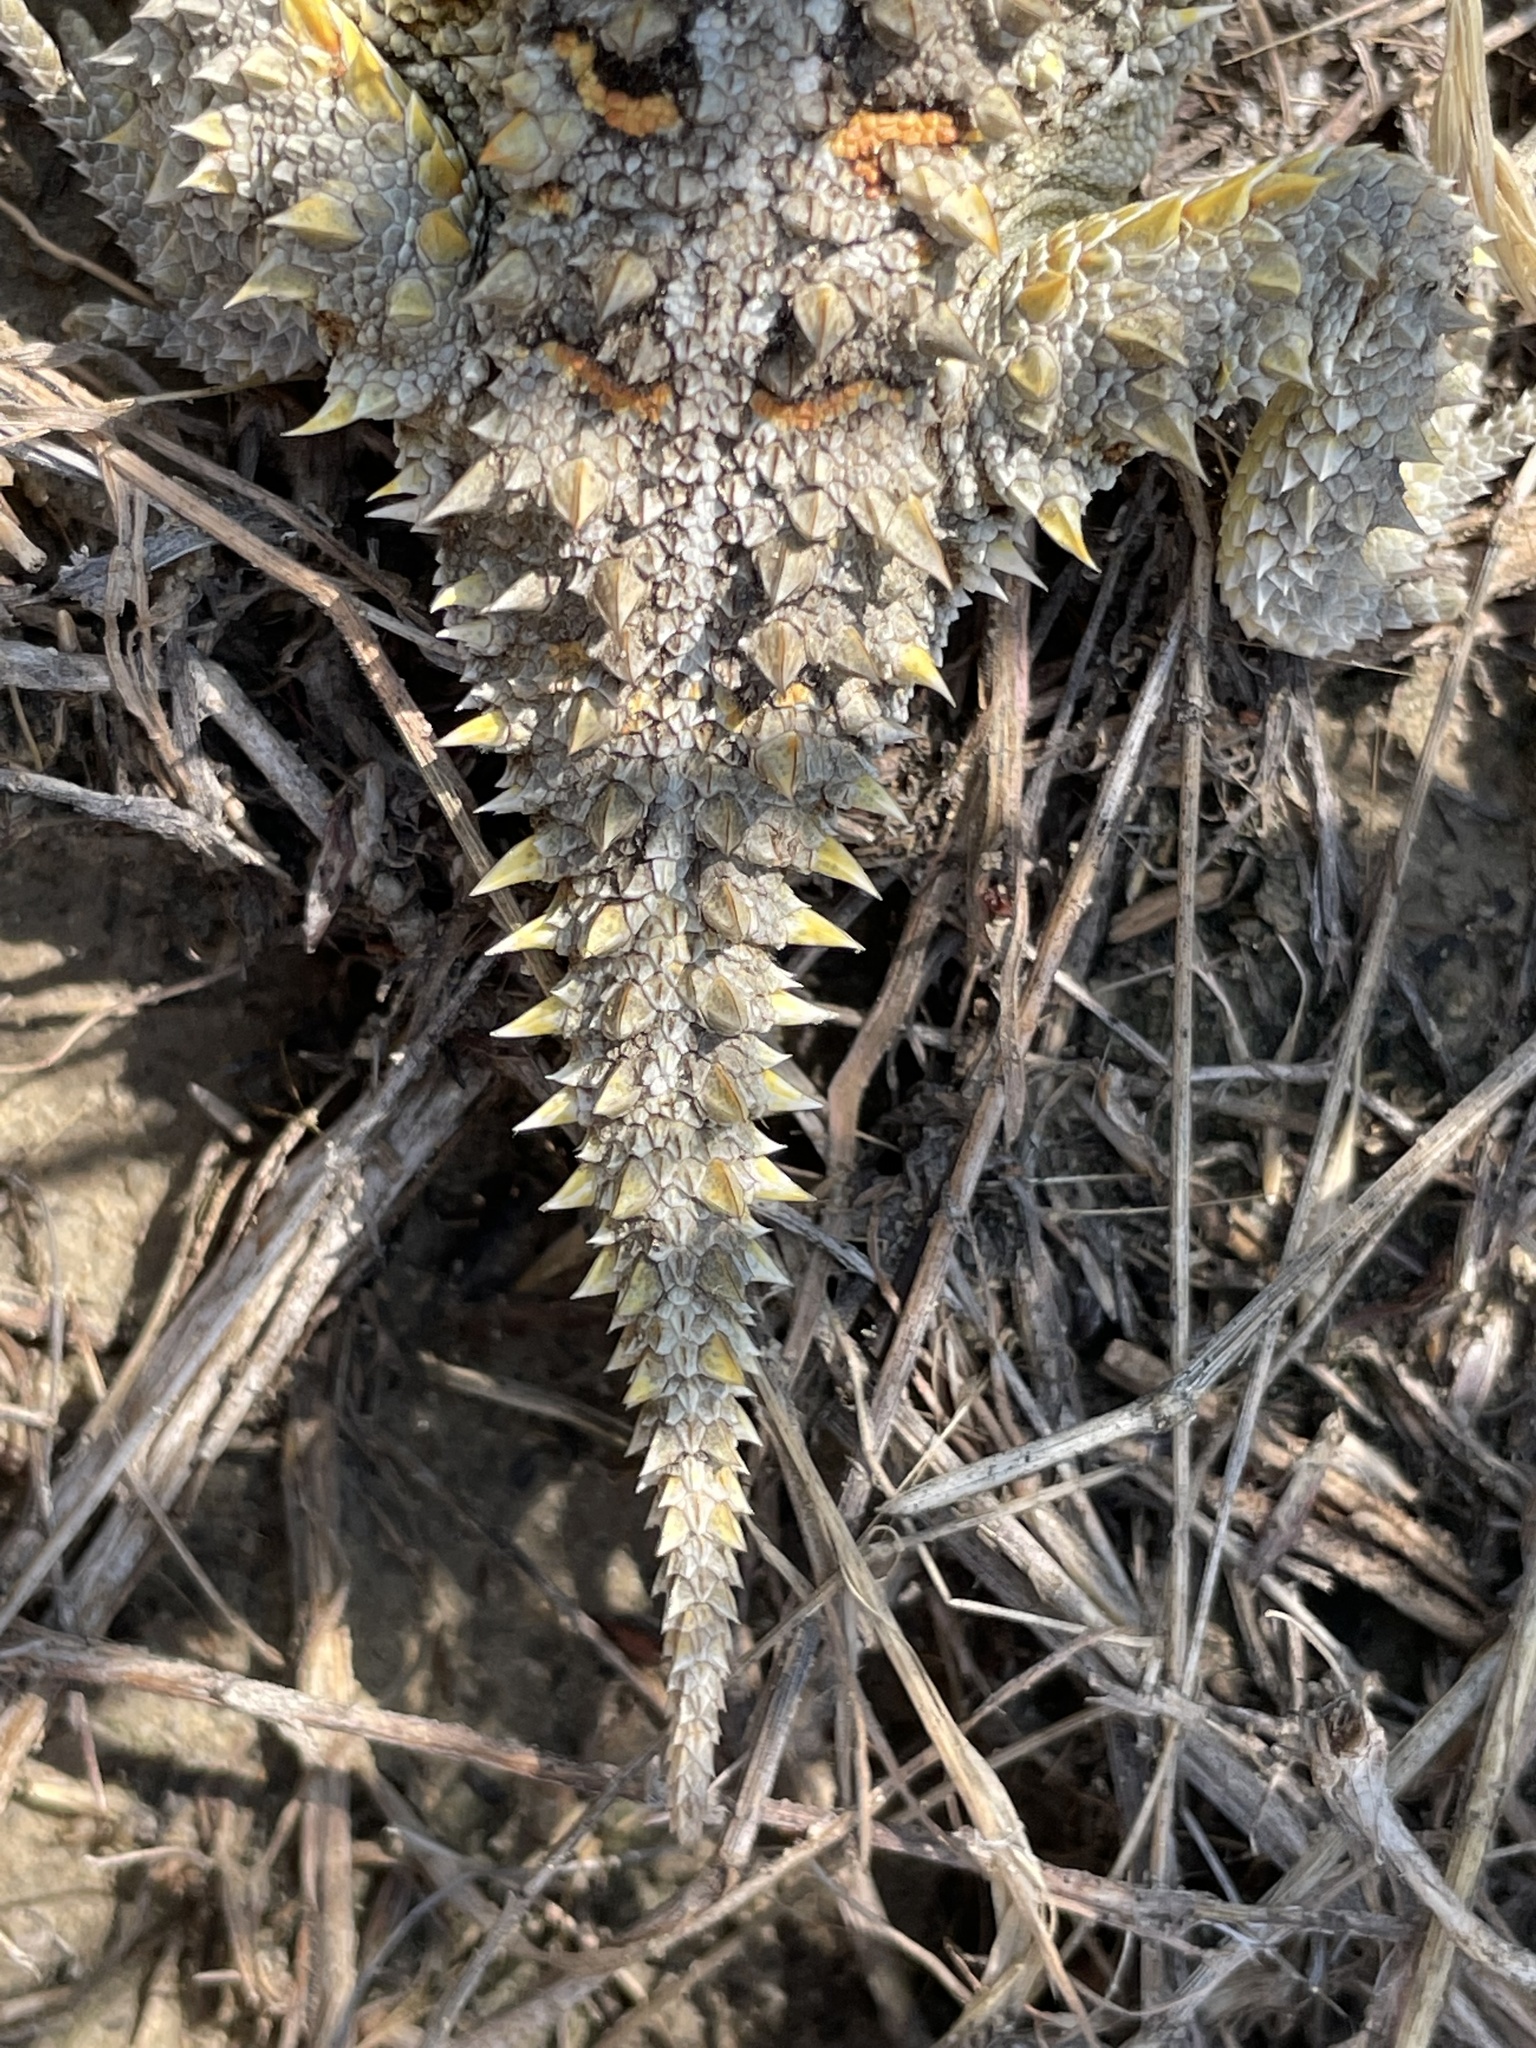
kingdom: Animalia
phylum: Chordata
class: Squamata
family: Phrynosomatidae
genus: Phrynosoma
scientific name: Phrynosoma hernandesi
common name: Greater short-horned lizard
